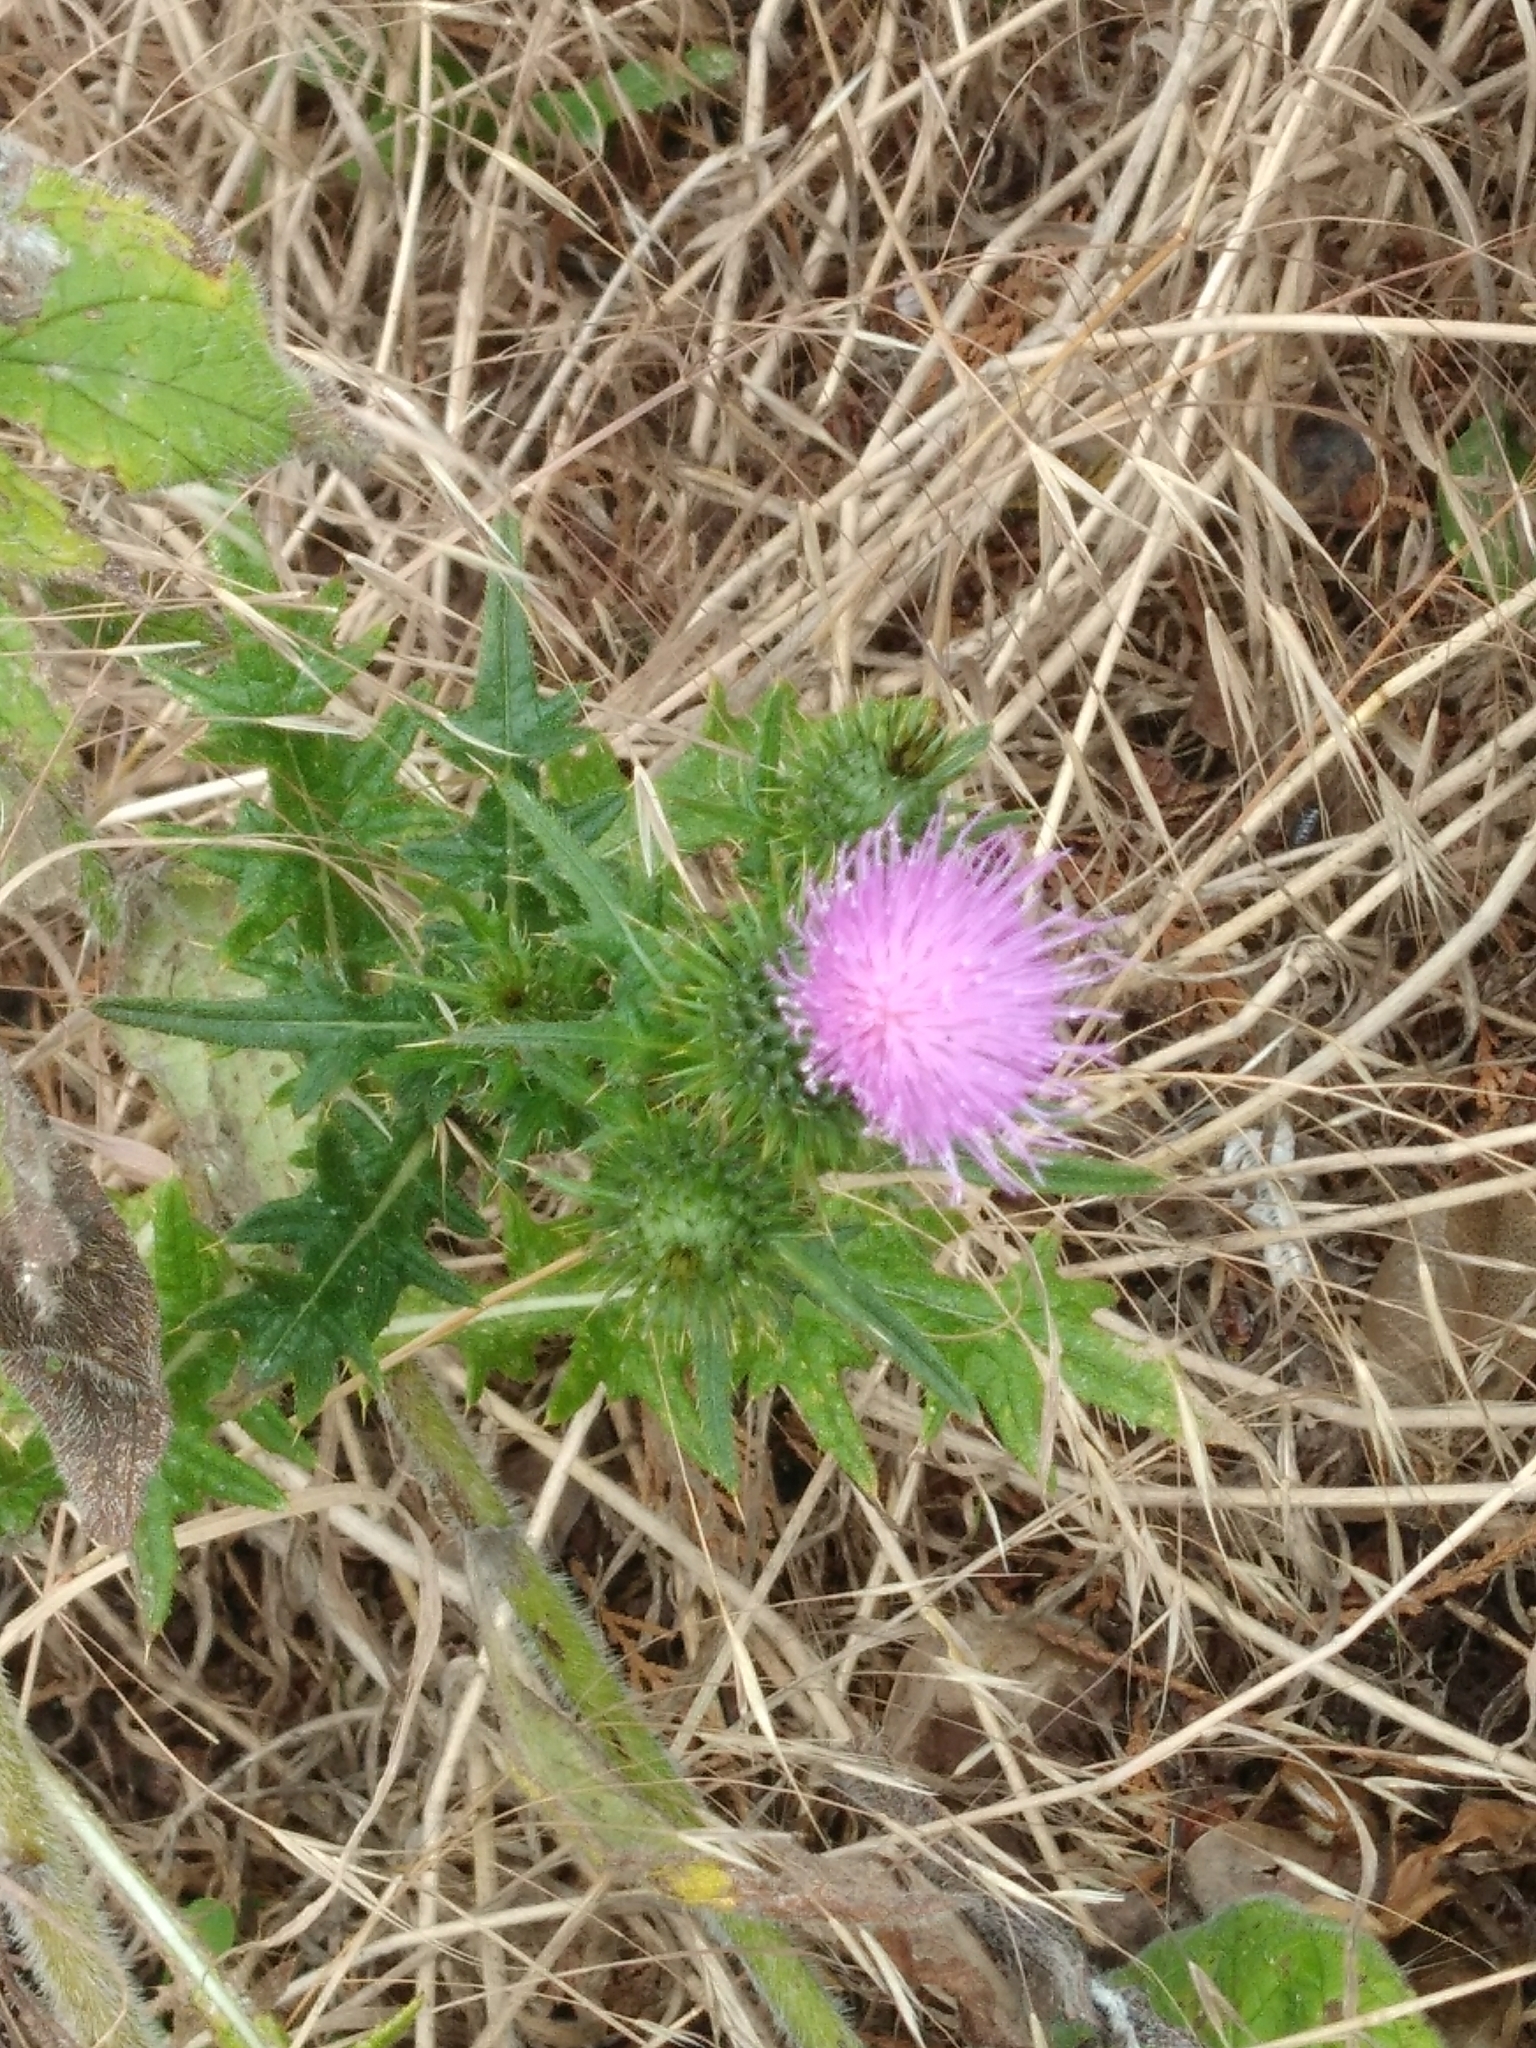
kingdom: Plantae
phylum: Tracheophyta
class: Magnoliopsida
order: Asterales
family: Asteraceae
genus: Cirsium
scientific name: Cirsium vulgare
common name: Bull thistle
